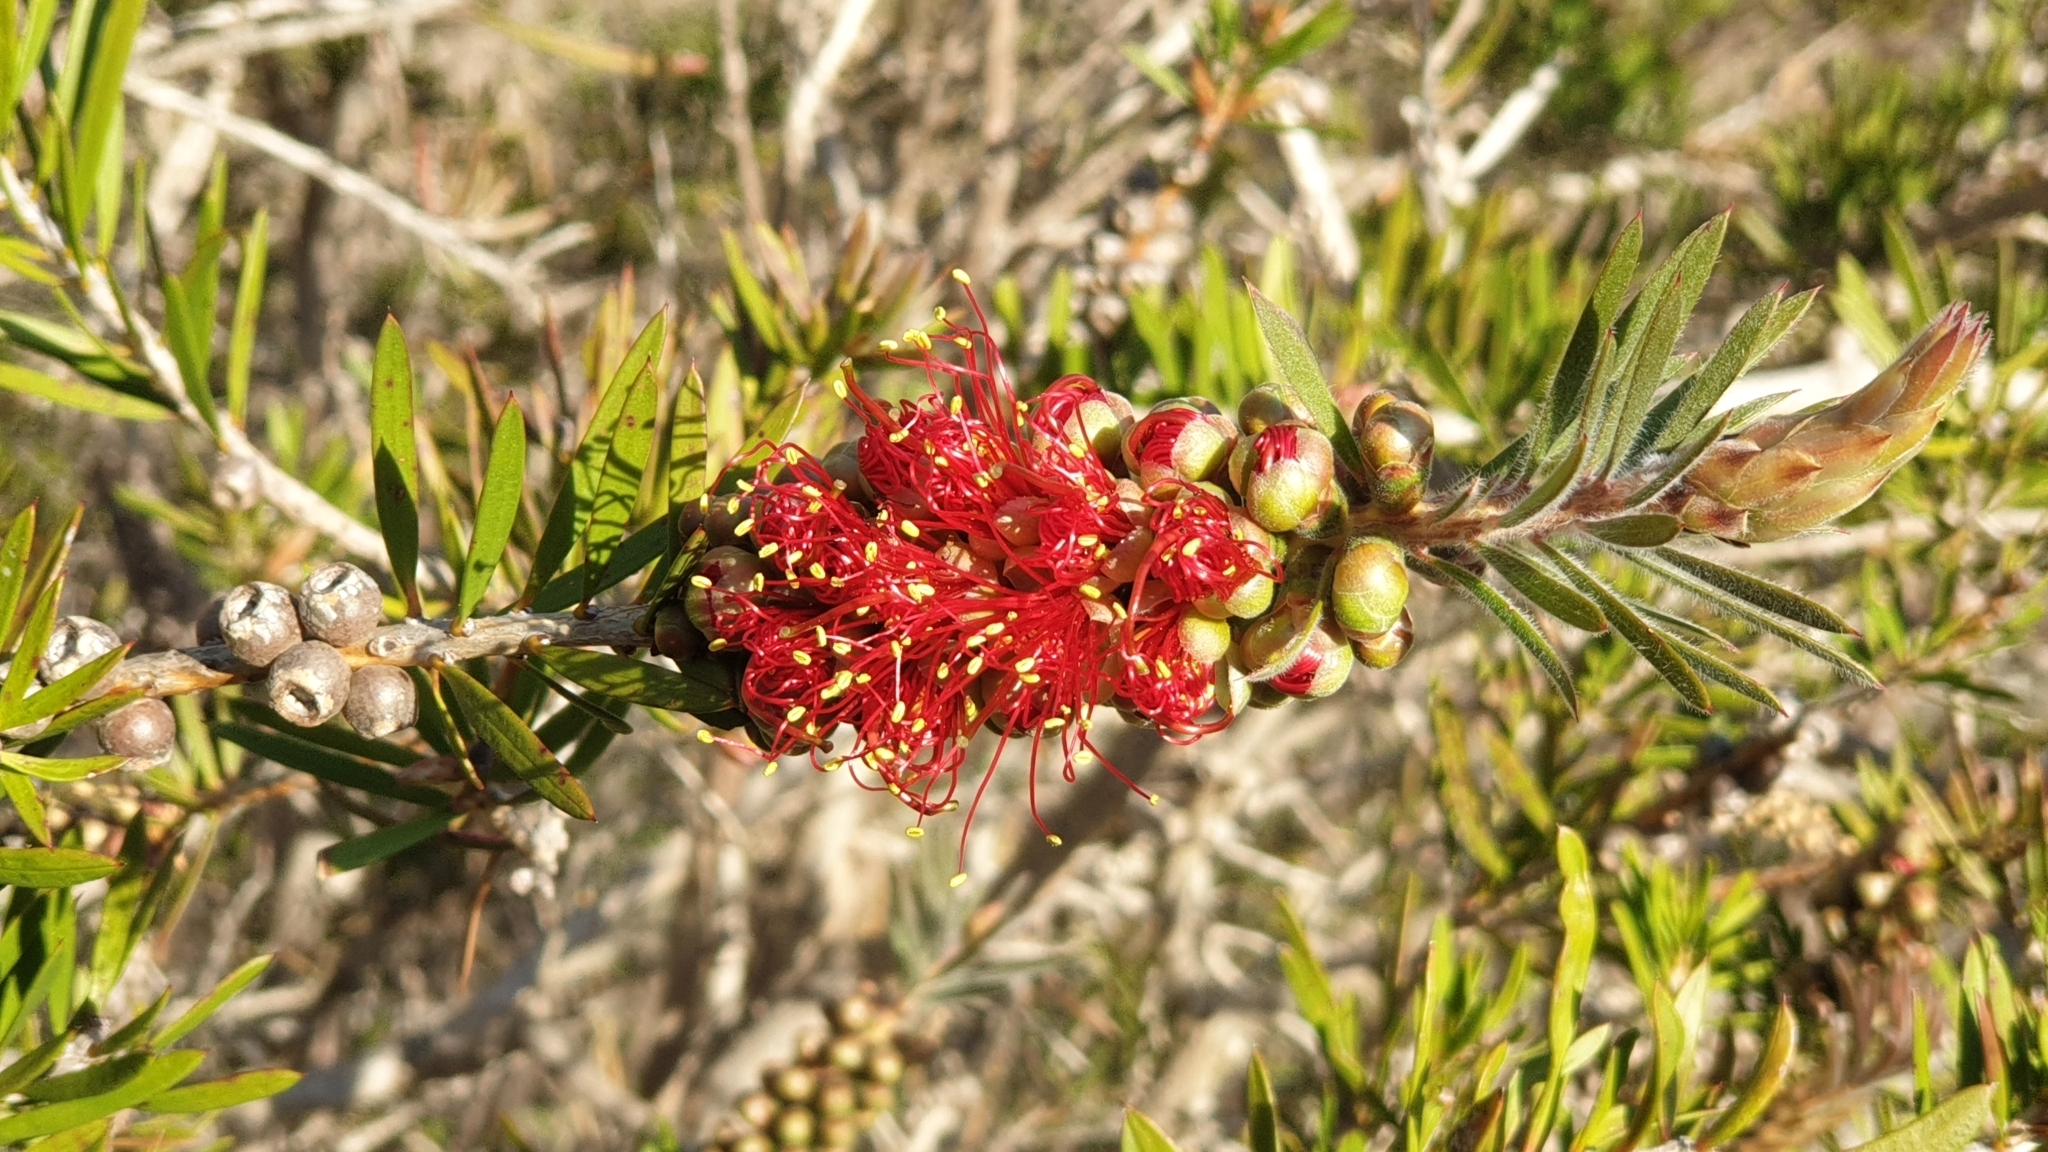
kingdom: Plantae
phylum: Tracheophyta
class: Magnoliopsida
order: Myrtales
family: Myrtaceae
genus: Callistemon
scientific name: Callistemon rugulosus
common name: Scarlet bottlebrush
